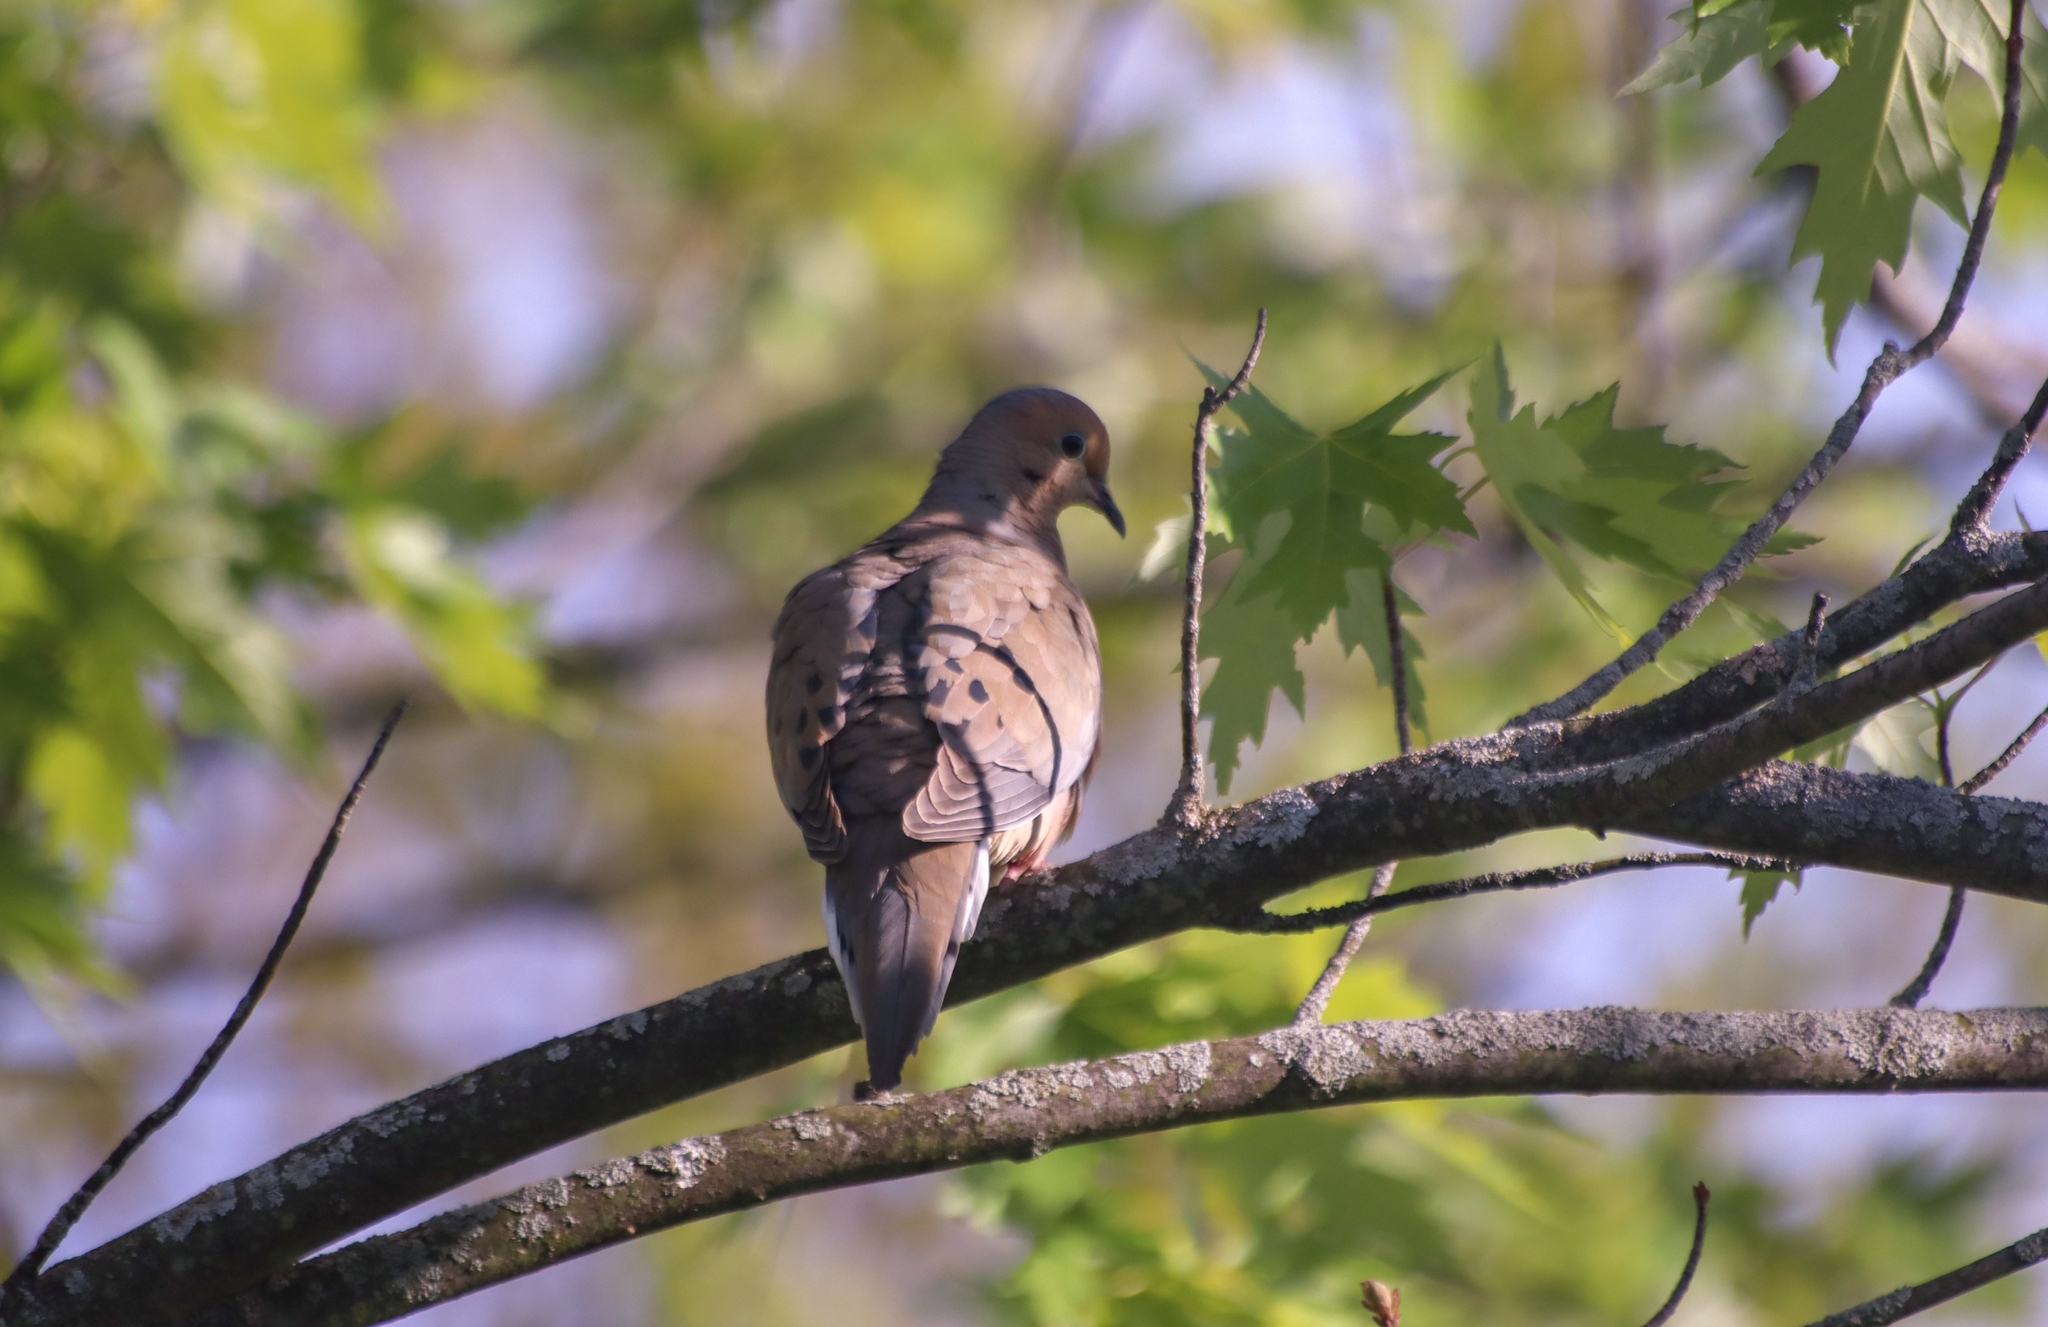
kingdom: Animalia
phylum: Chordata
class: Aves
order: Columbiformes
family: Columbidae
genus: Zenaida
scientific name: Zenaida macroura
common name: Mourning dove
